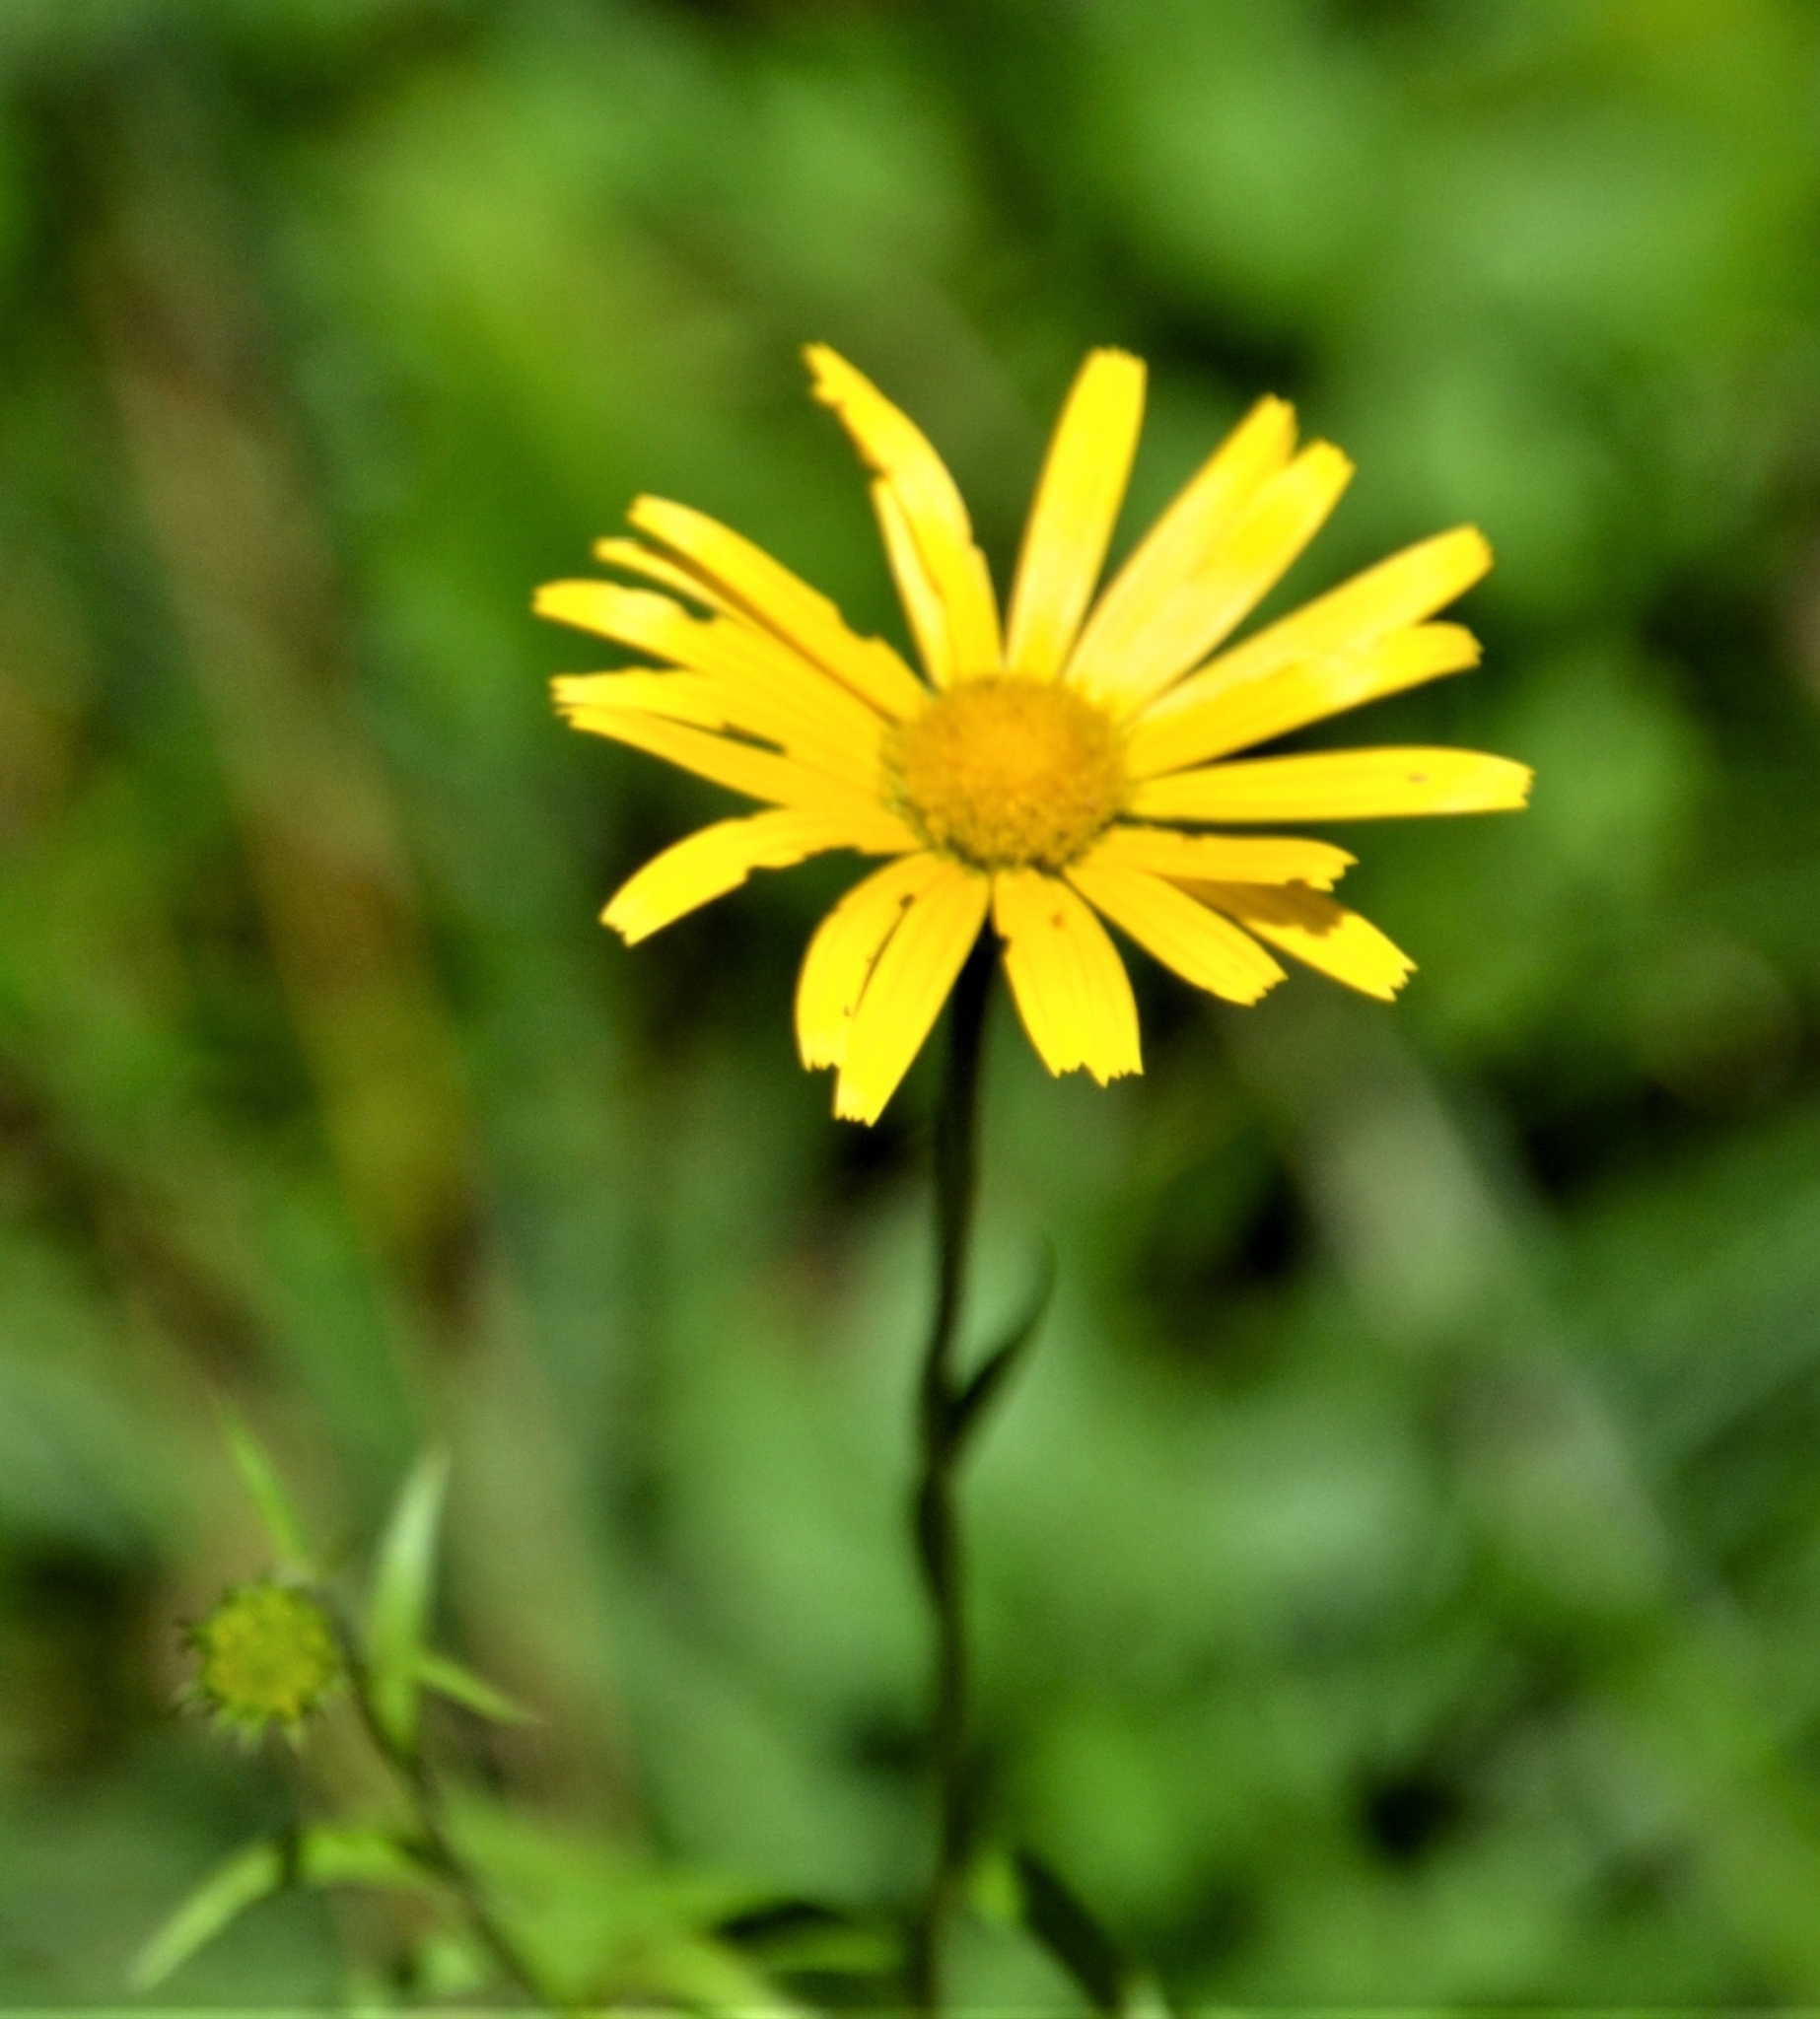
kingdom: Plantae
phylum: Tracheophyta
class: Magnoliopsida
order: Asterales
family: Asteraceae
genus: Buphthalmum
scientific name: Buphthalmum salicifolium
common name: Willow-leaved yellow-oxeye
